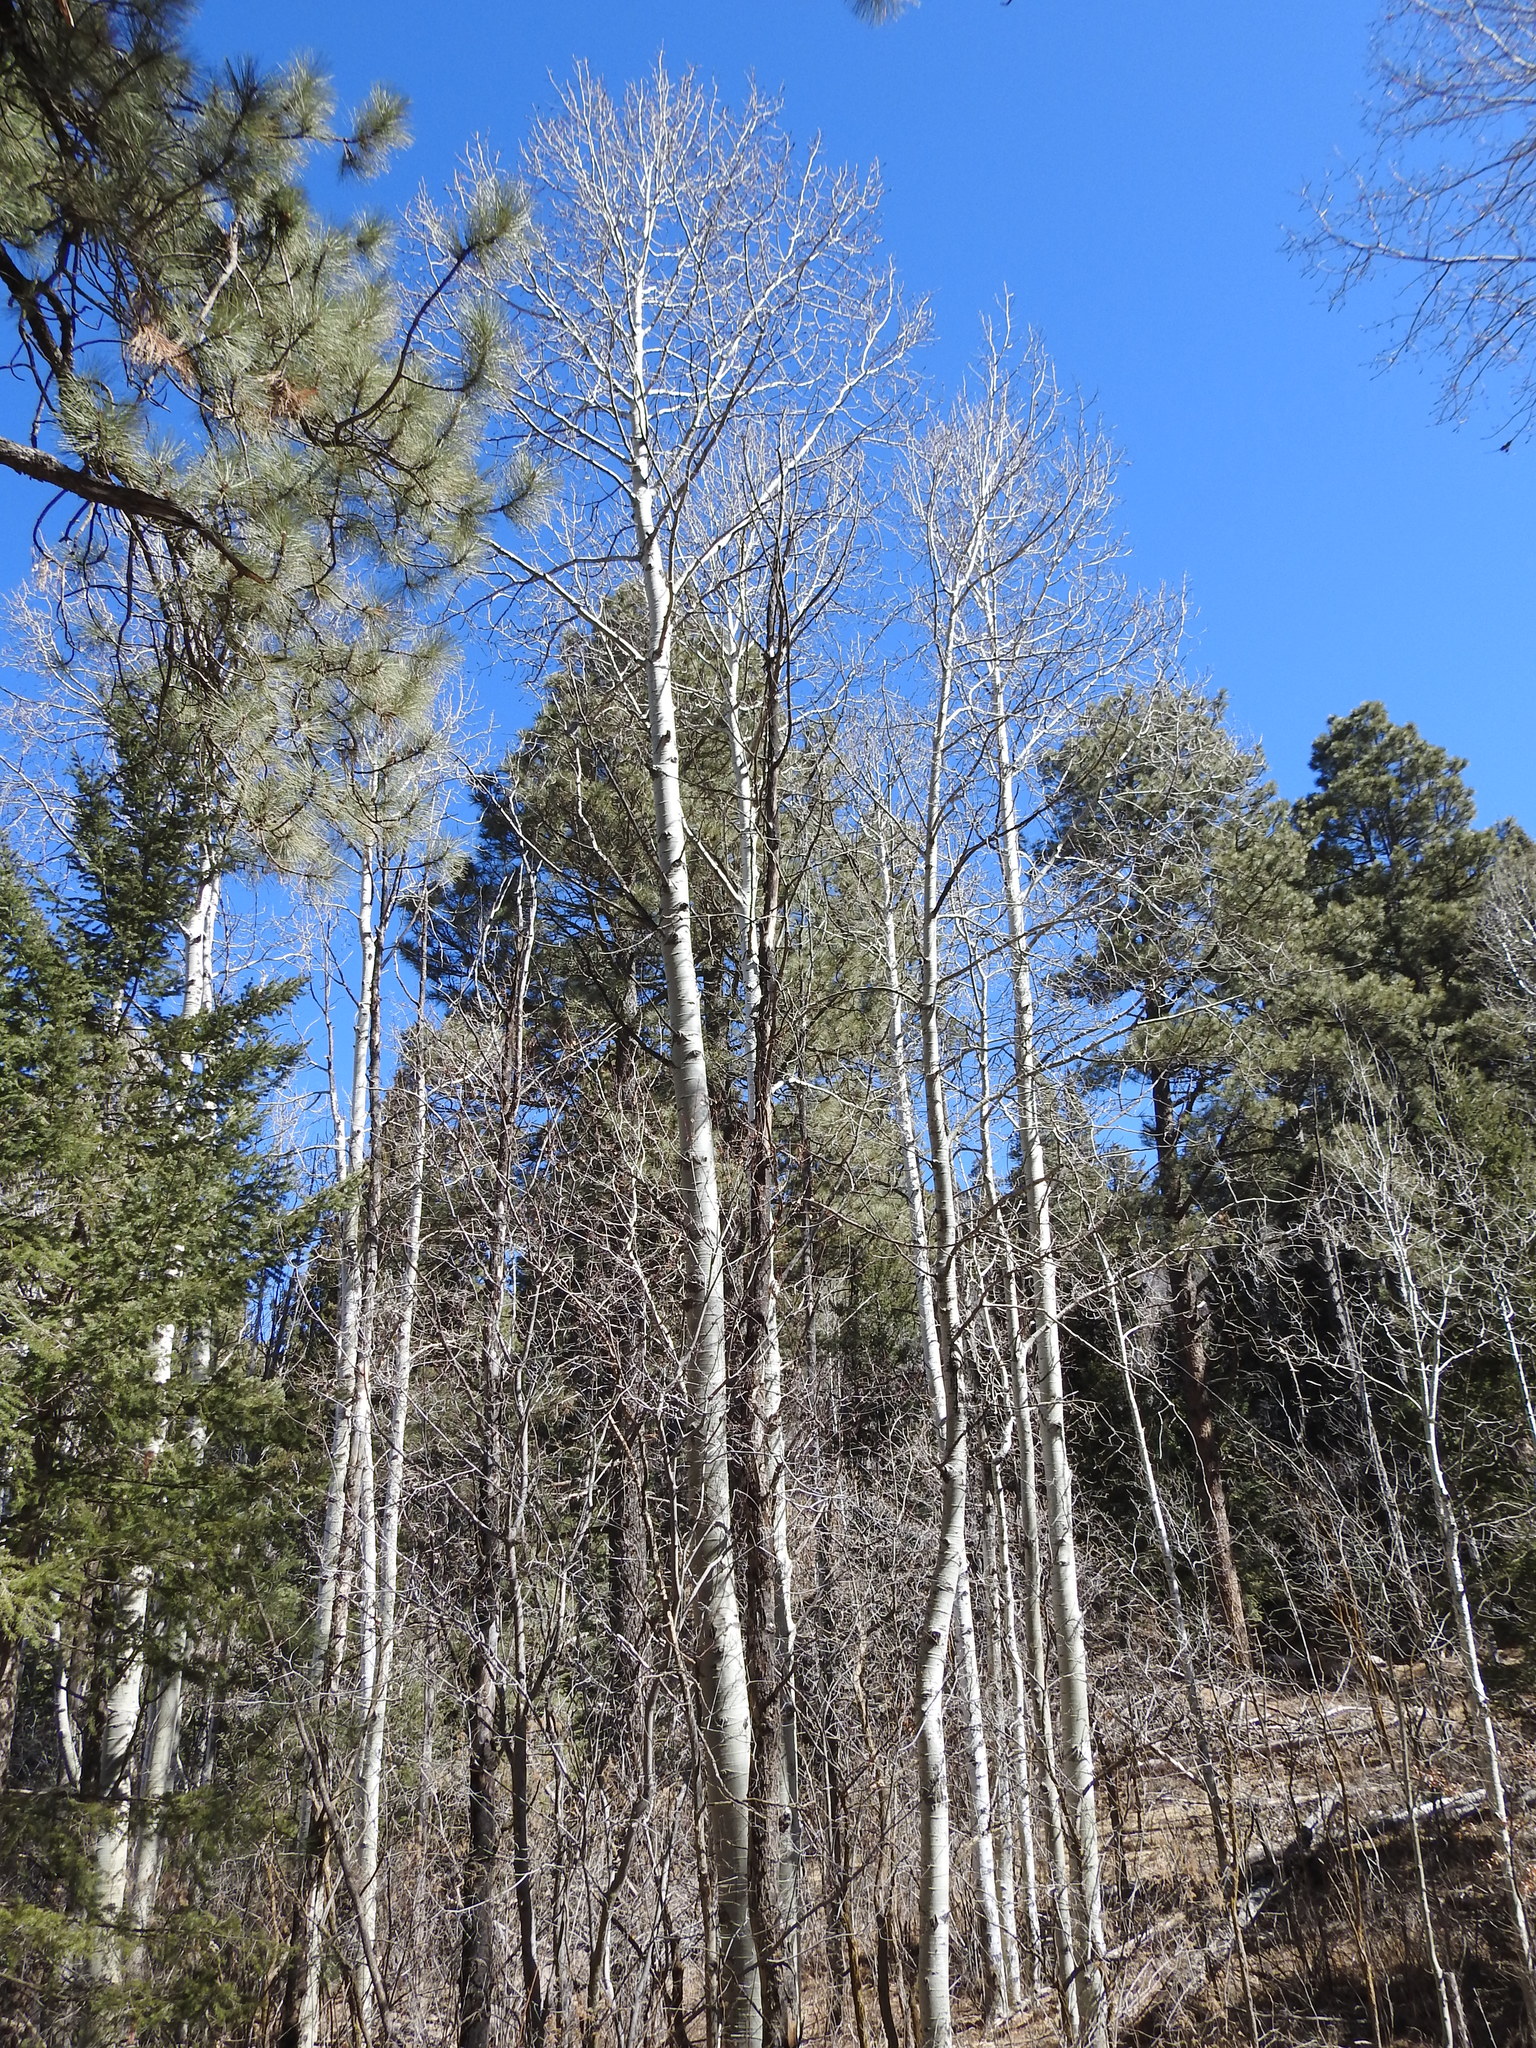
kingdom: Plantae
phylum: Tracheophyta
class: Magnoliopsida
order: Malpighiales
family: Salicaceae
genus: Populus
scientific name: Populus tremuloides
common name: Quaking aspen
